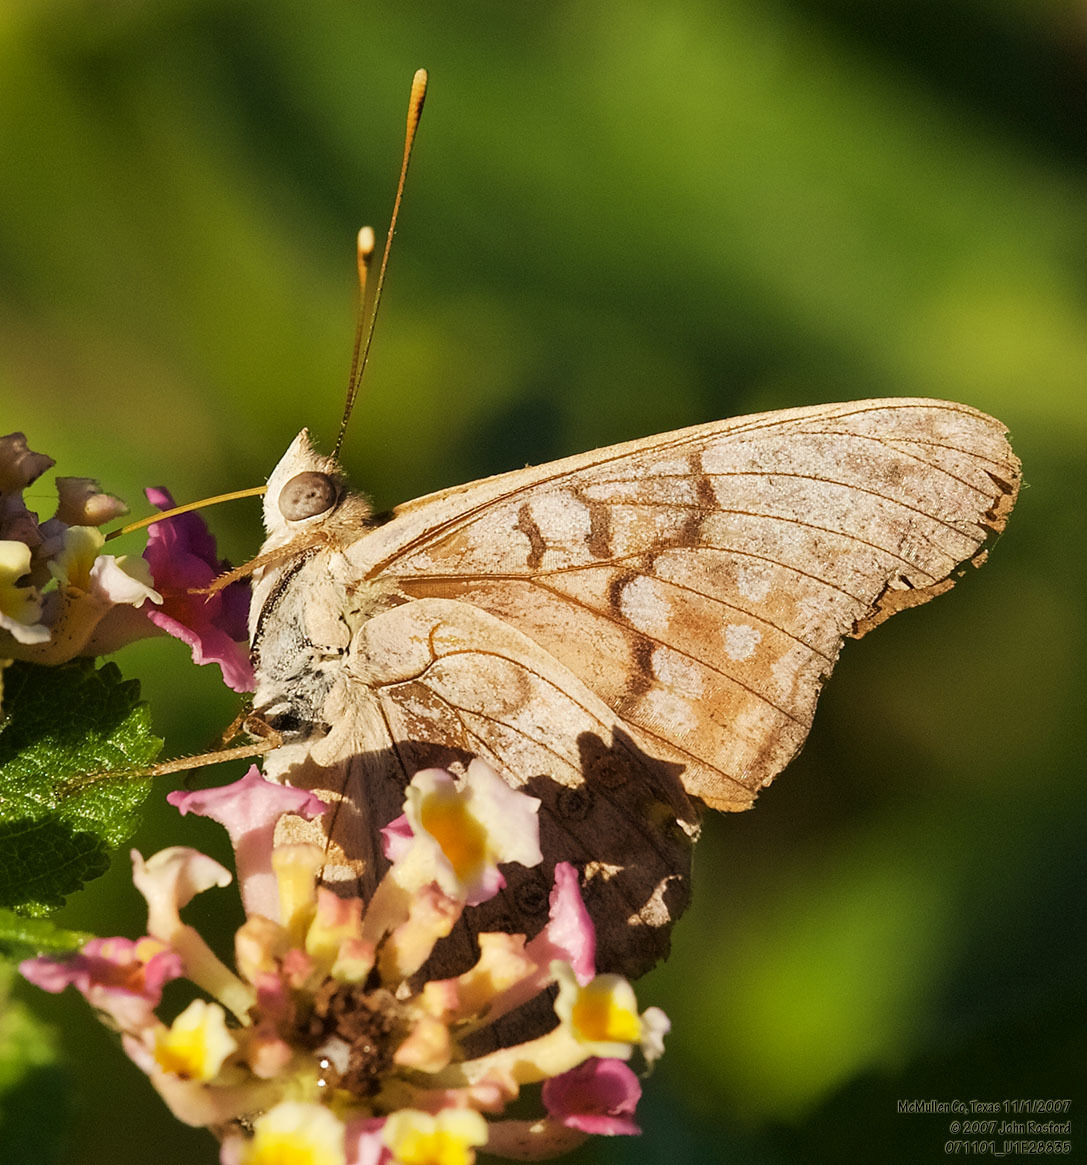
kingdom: Animalia
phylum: Arthropoda
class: Insecta
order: Lepidoptera
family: Nymphalidae
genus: Asterocampa
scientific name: Asterocampa clyton
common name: Tawny emperor
